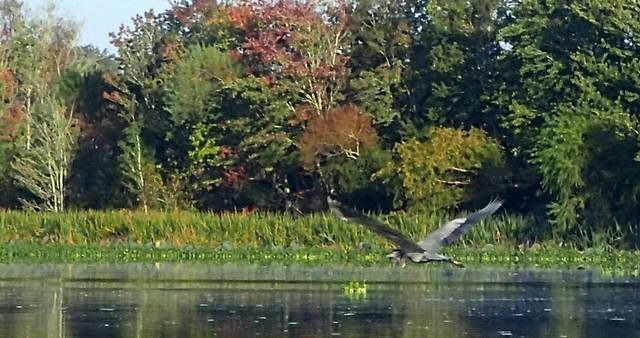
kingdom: Animalia
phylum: Chordata
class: Aves
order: Pelecaniformes
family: Ardeidae
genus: Ardea
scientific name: Ardea herodias
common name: Great blue heron
